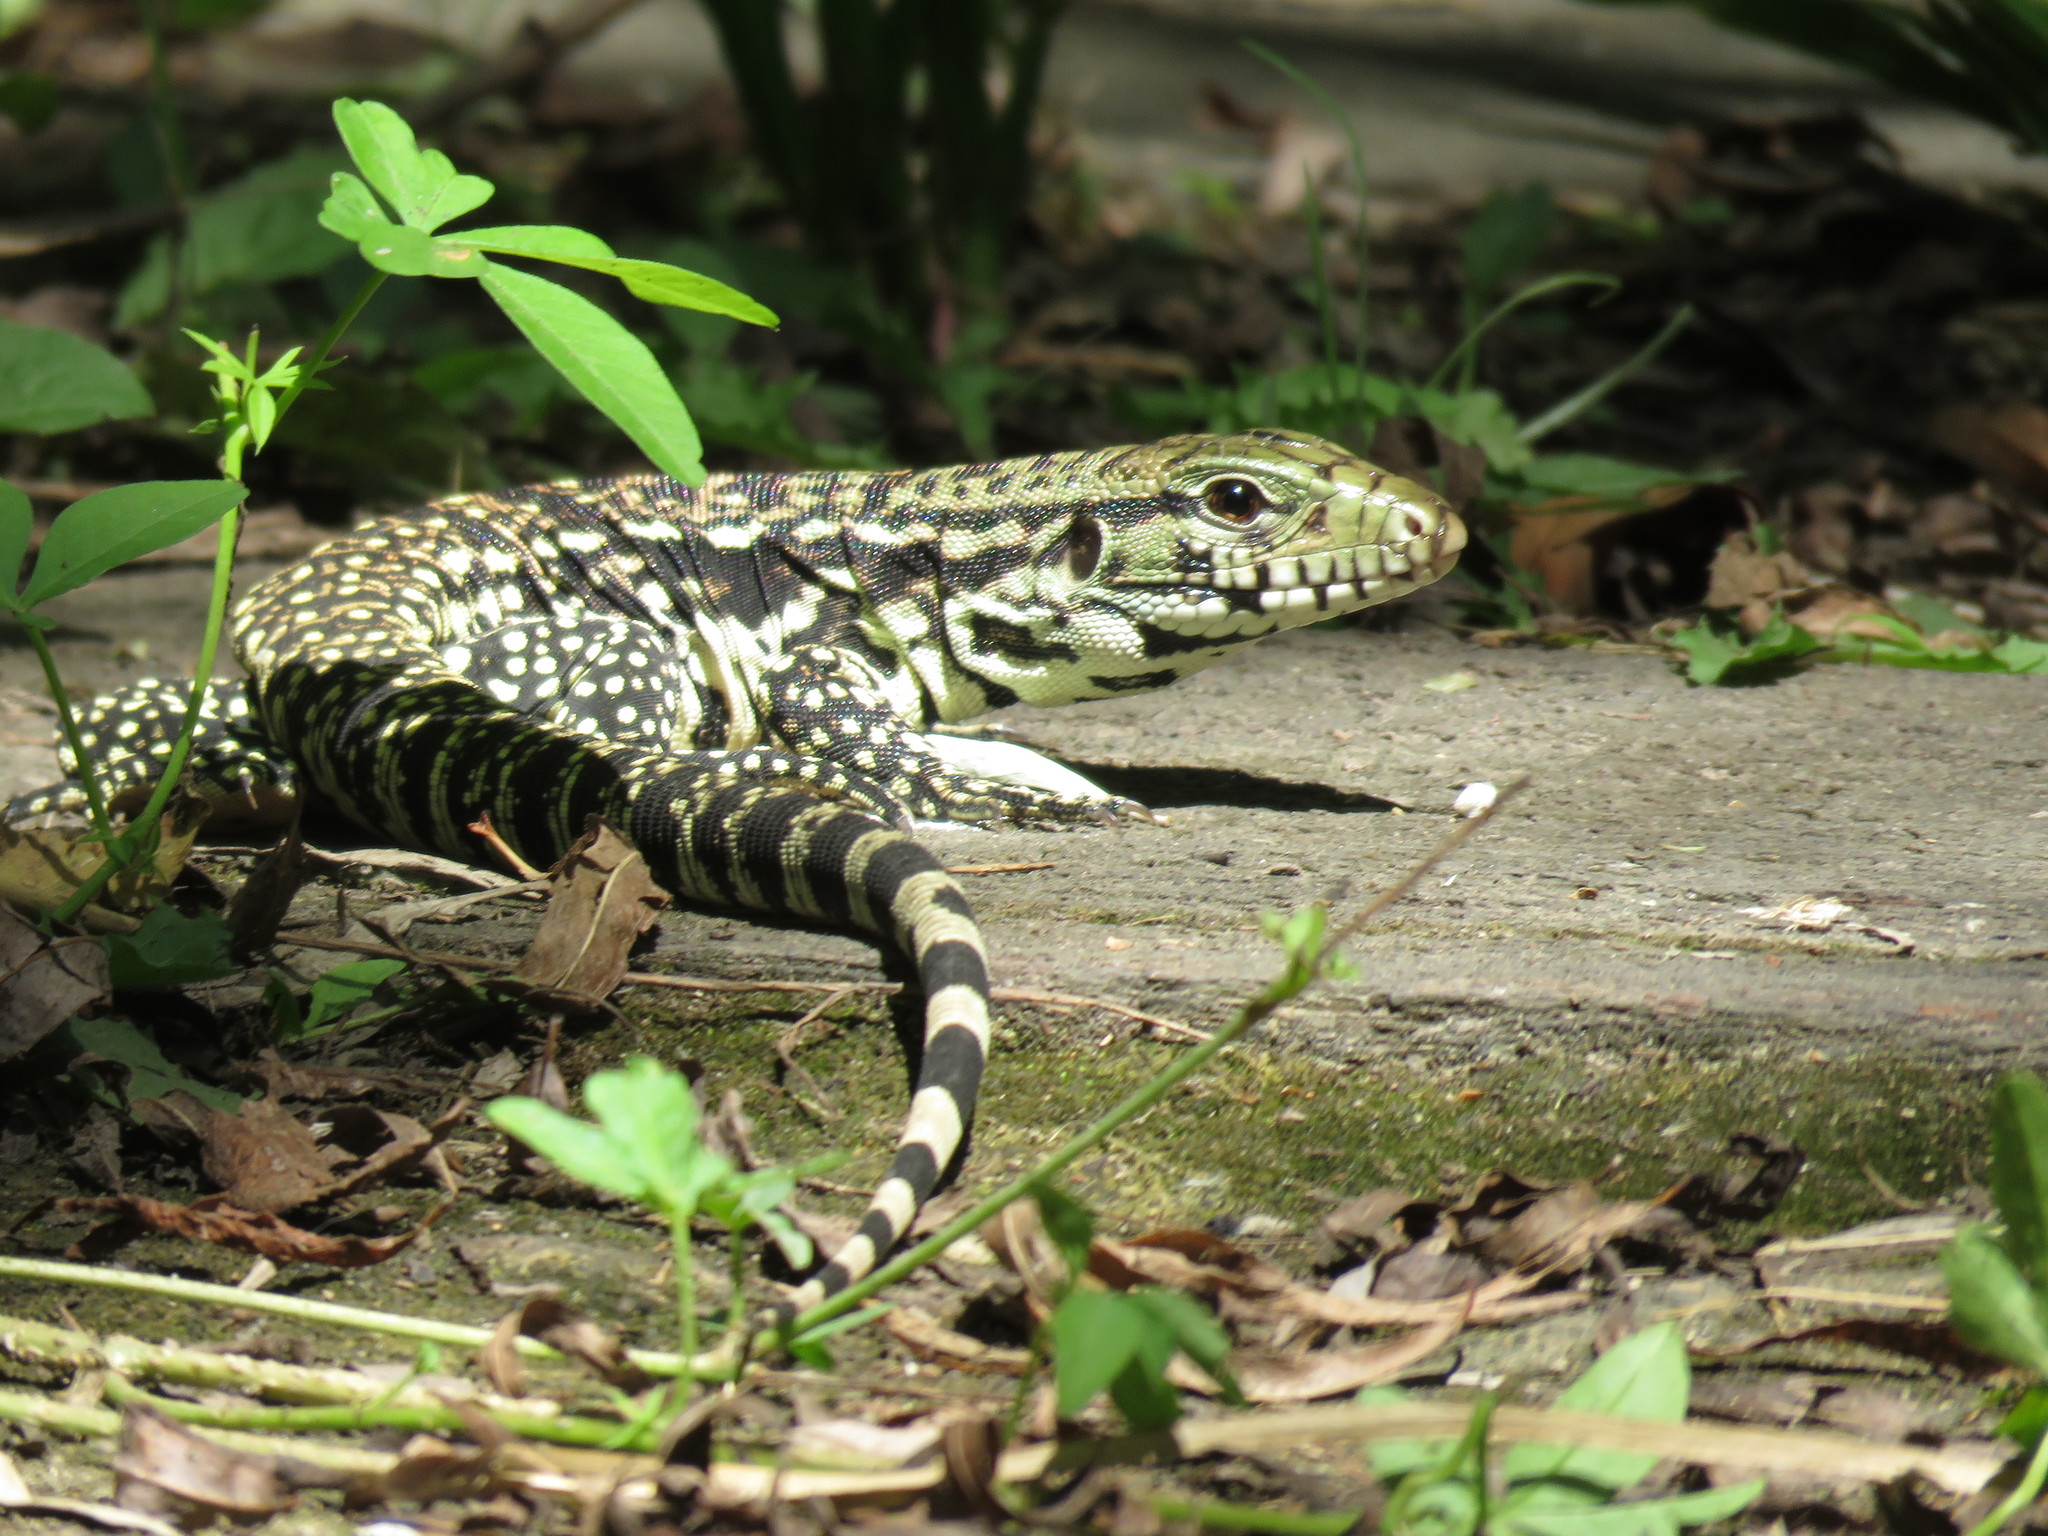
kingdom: Animalia
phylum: Chordata
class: Squamata
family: Teiidae
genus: Salvator
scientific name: Salvator merianae
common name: Argentine black and white tegu
